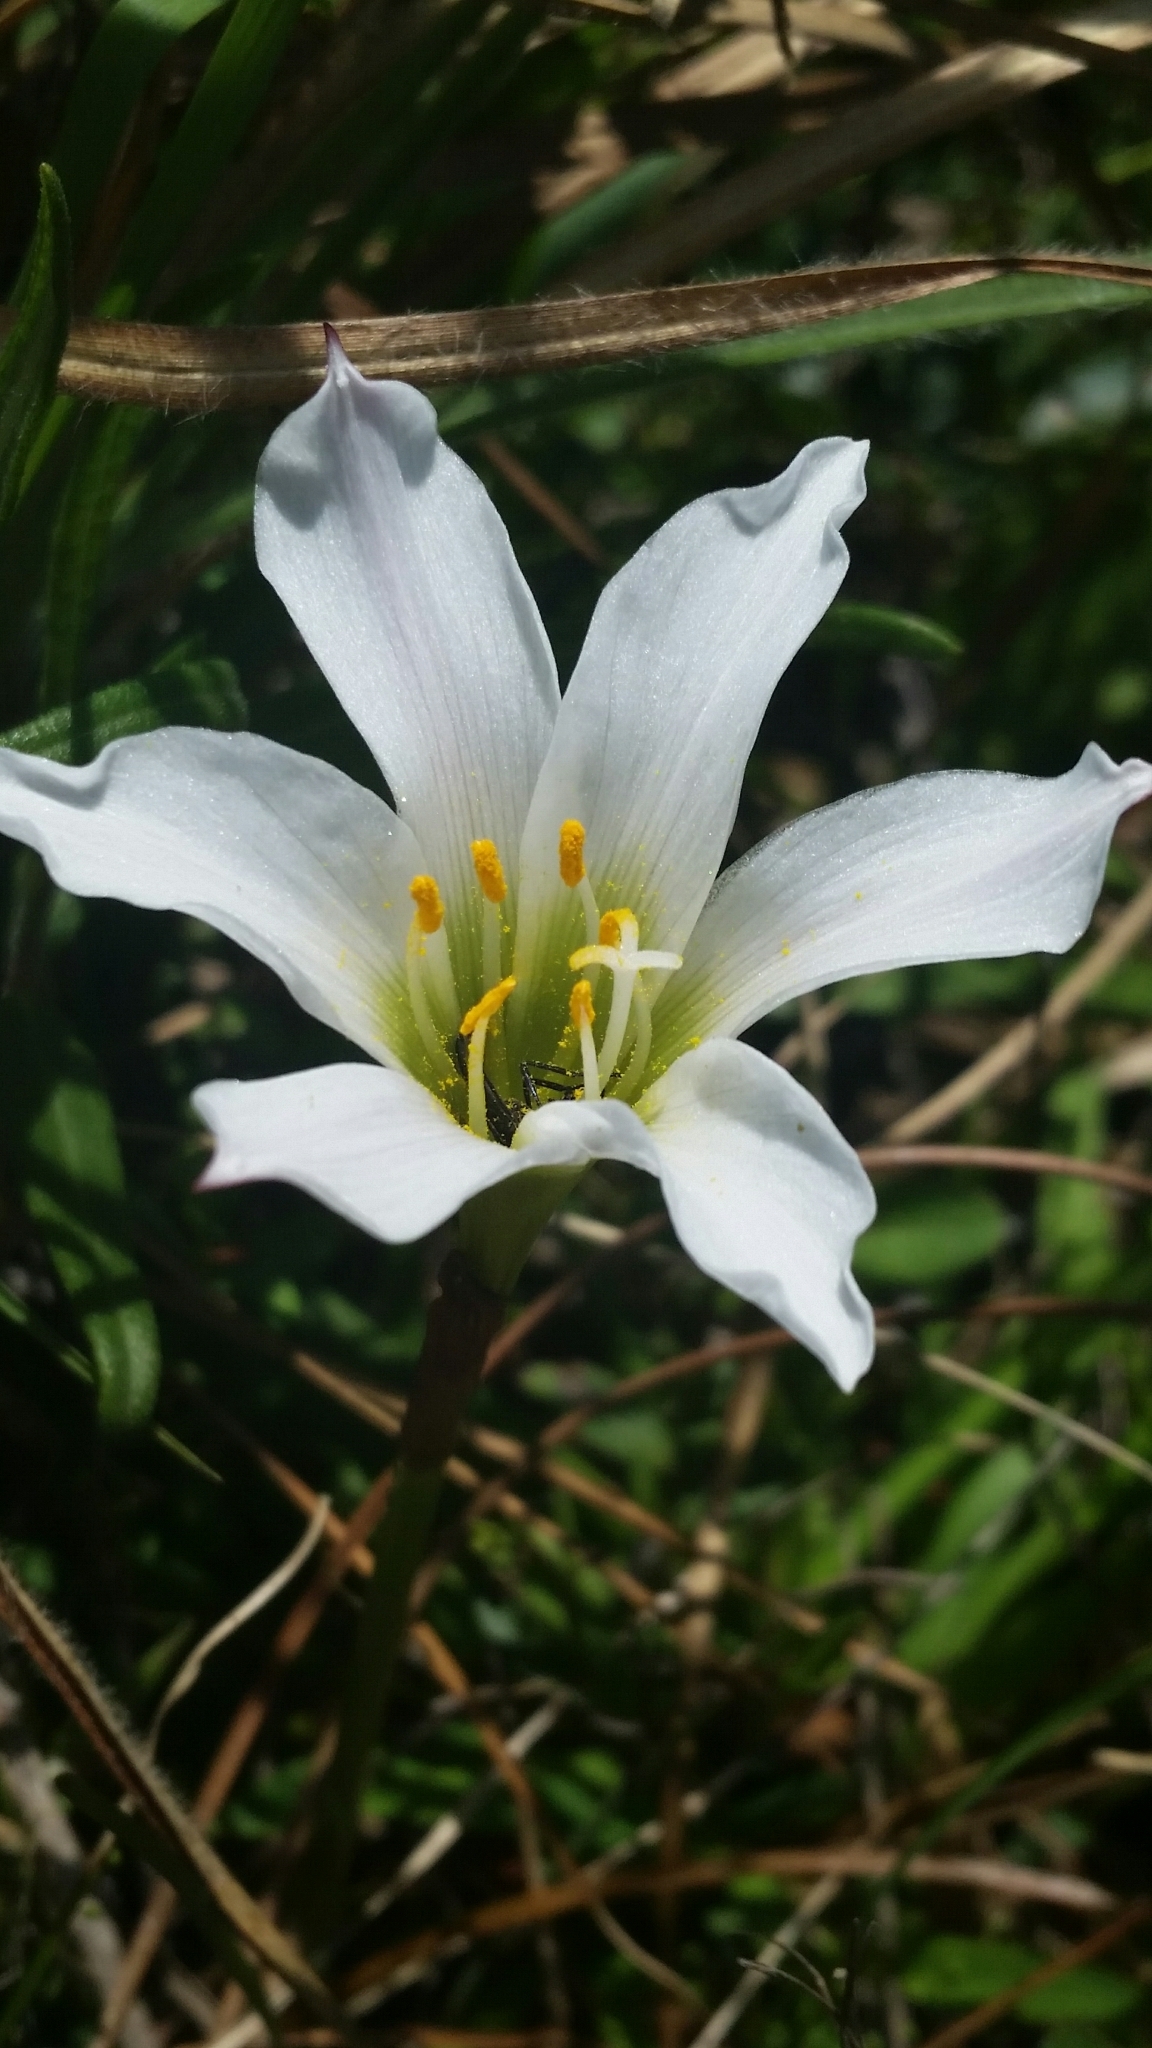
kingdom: Plantae
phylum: Tracheophyta
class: Liliopsida
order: Asparagales
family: Amaryllidaceae
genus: Zephyranthes
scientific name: Zephyranthes simpsonii
